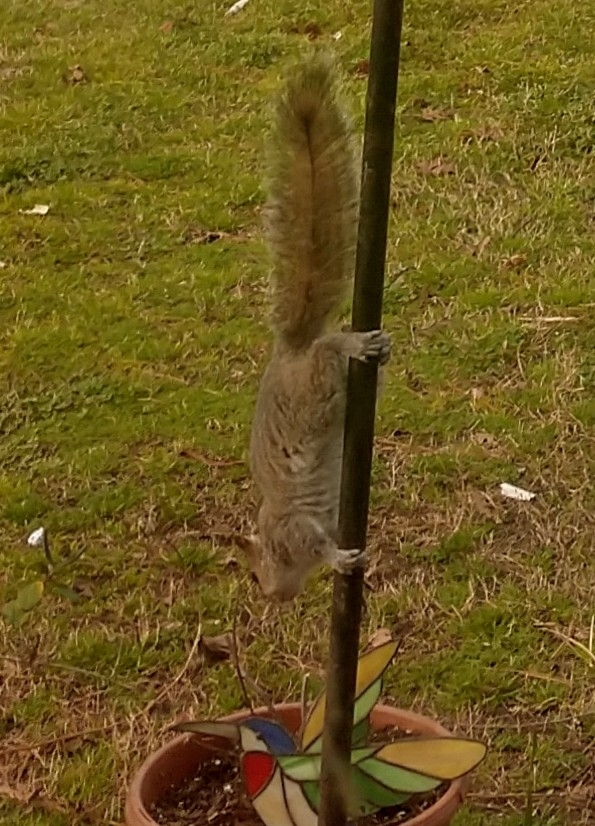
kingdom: Animalia
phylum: Chordata
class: Mammalia
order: Rodentia
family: Sciuridae
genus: Sciurus
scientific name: Sciurus carolinensis
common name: Eastern gray squirrel
